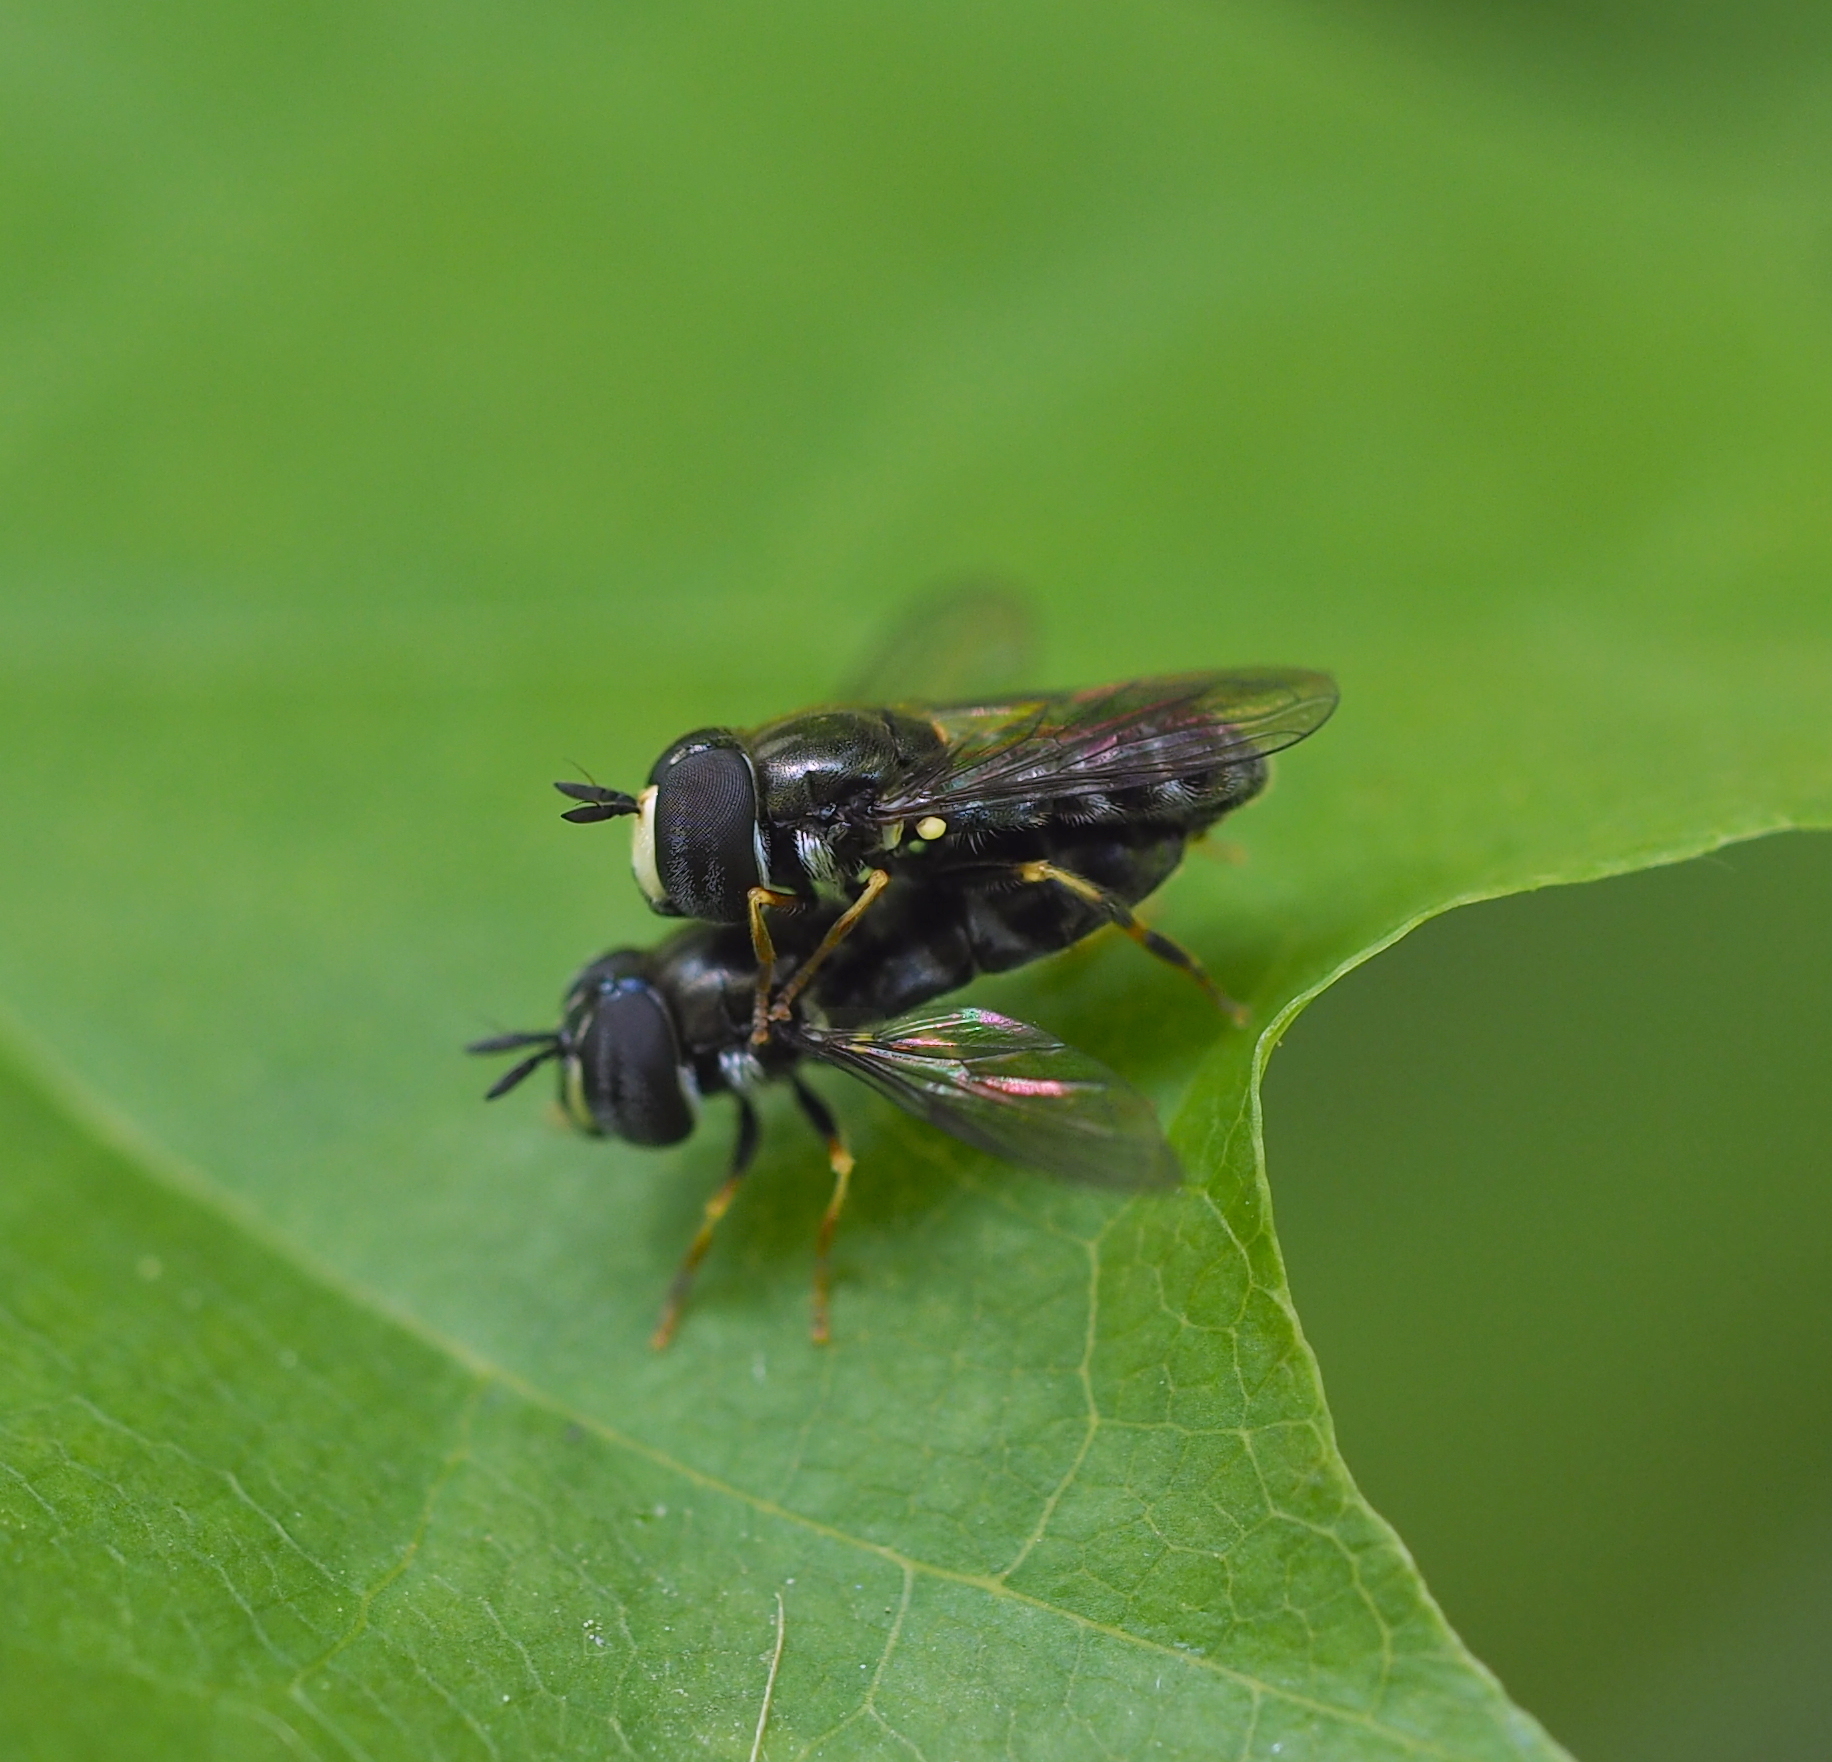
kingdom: Animalia
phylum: Arthropoda
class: Insecta
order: Diptera
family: Syrphidae
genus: Paragus
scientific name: Paragus pecchiolii
